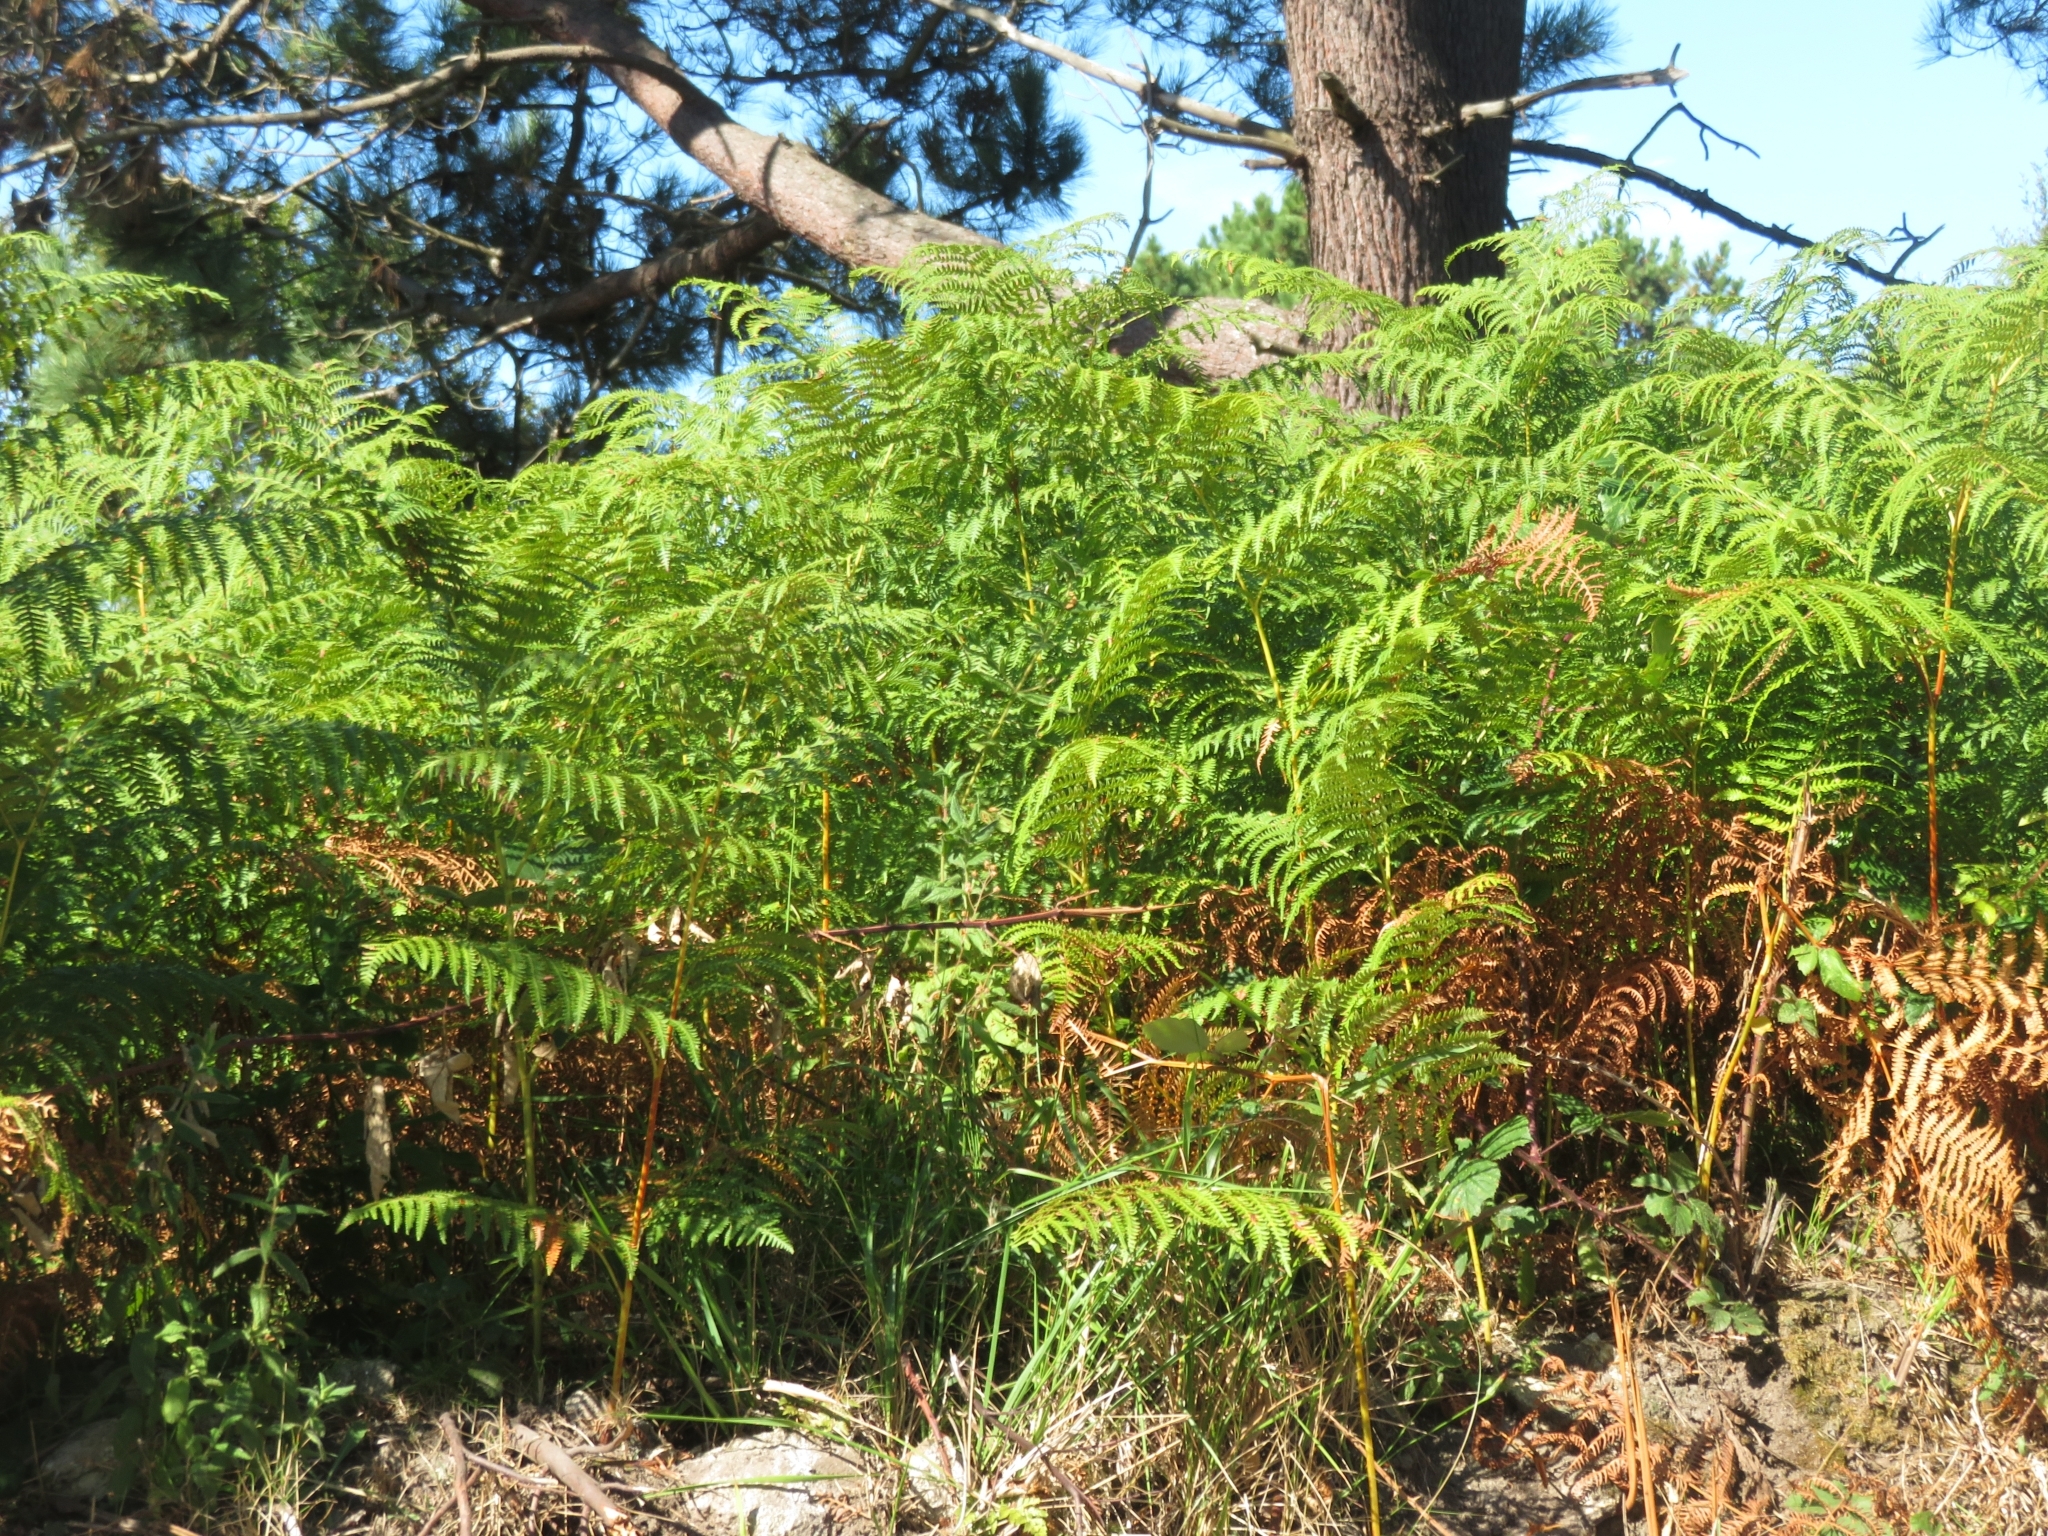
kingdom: Plantae
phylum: Tracheophyta
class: Polypodiopsida
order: Polypodiales
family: Dennstaedtiaceae
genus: Pteridium
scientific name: Pteridium aquilinum
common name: Bracken
